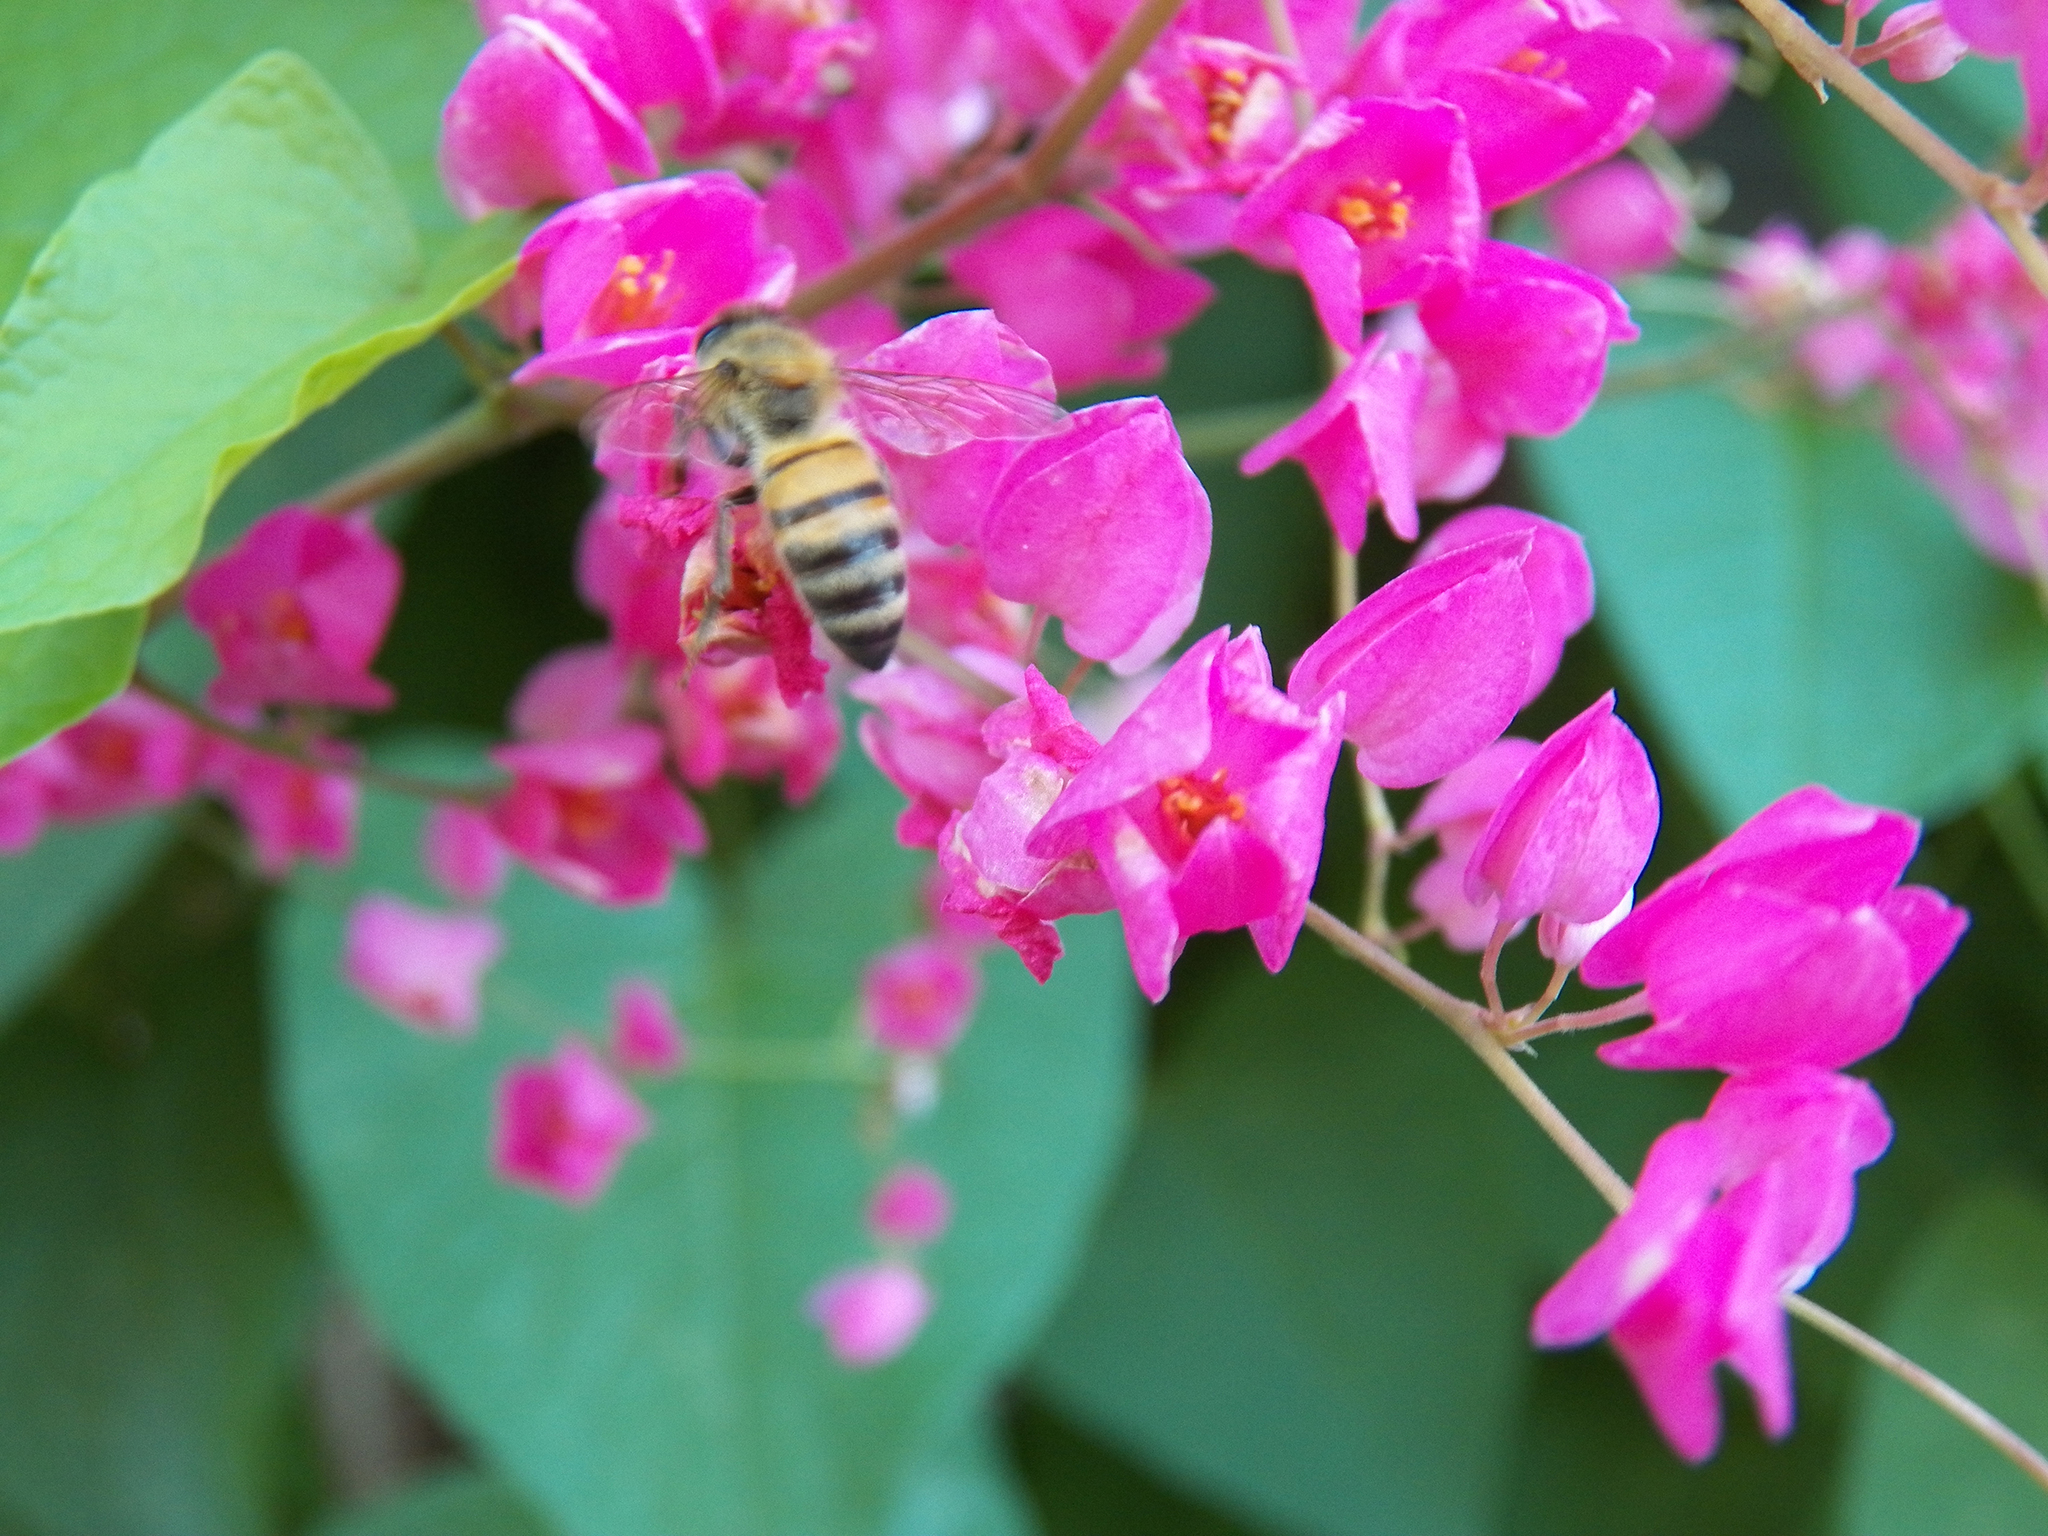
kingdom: Animalia
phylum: Arthropoda
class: Insecta
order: Hymenoptera
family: Apidae
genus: Apis
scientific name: Apis mellifera
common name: Honey bee
